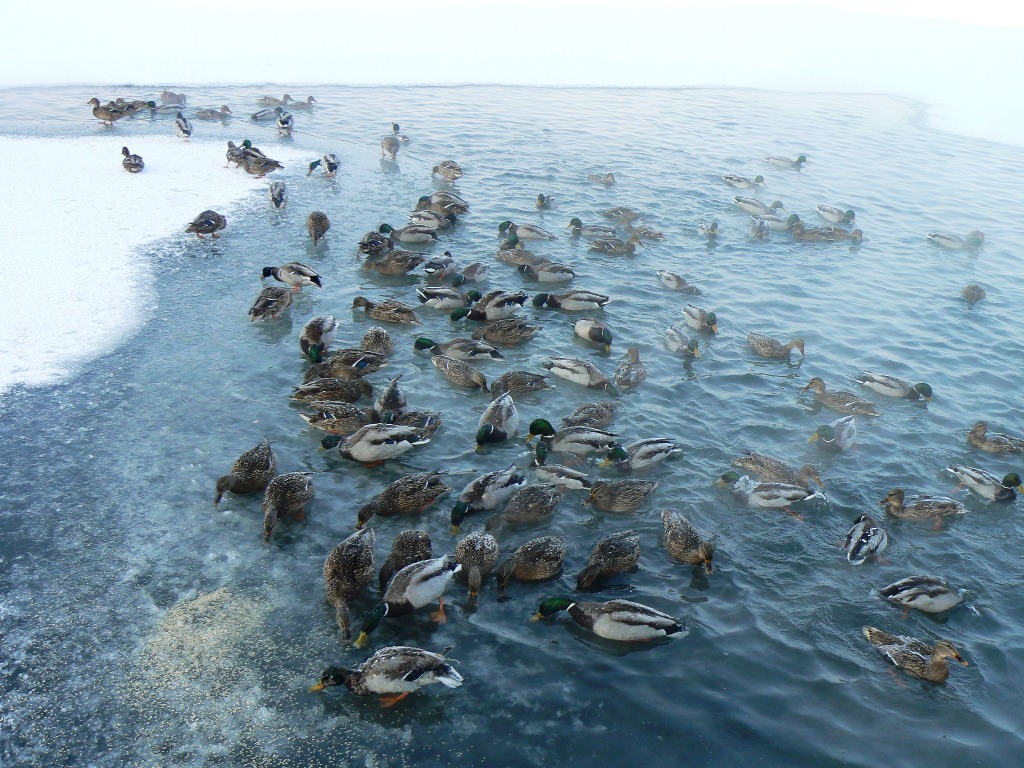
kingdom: Animalia
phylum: Chordata
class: Aves
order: Anseriformes
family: Anatidae
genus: Anas
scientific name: Anas platyrhynchos
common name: Mallard
